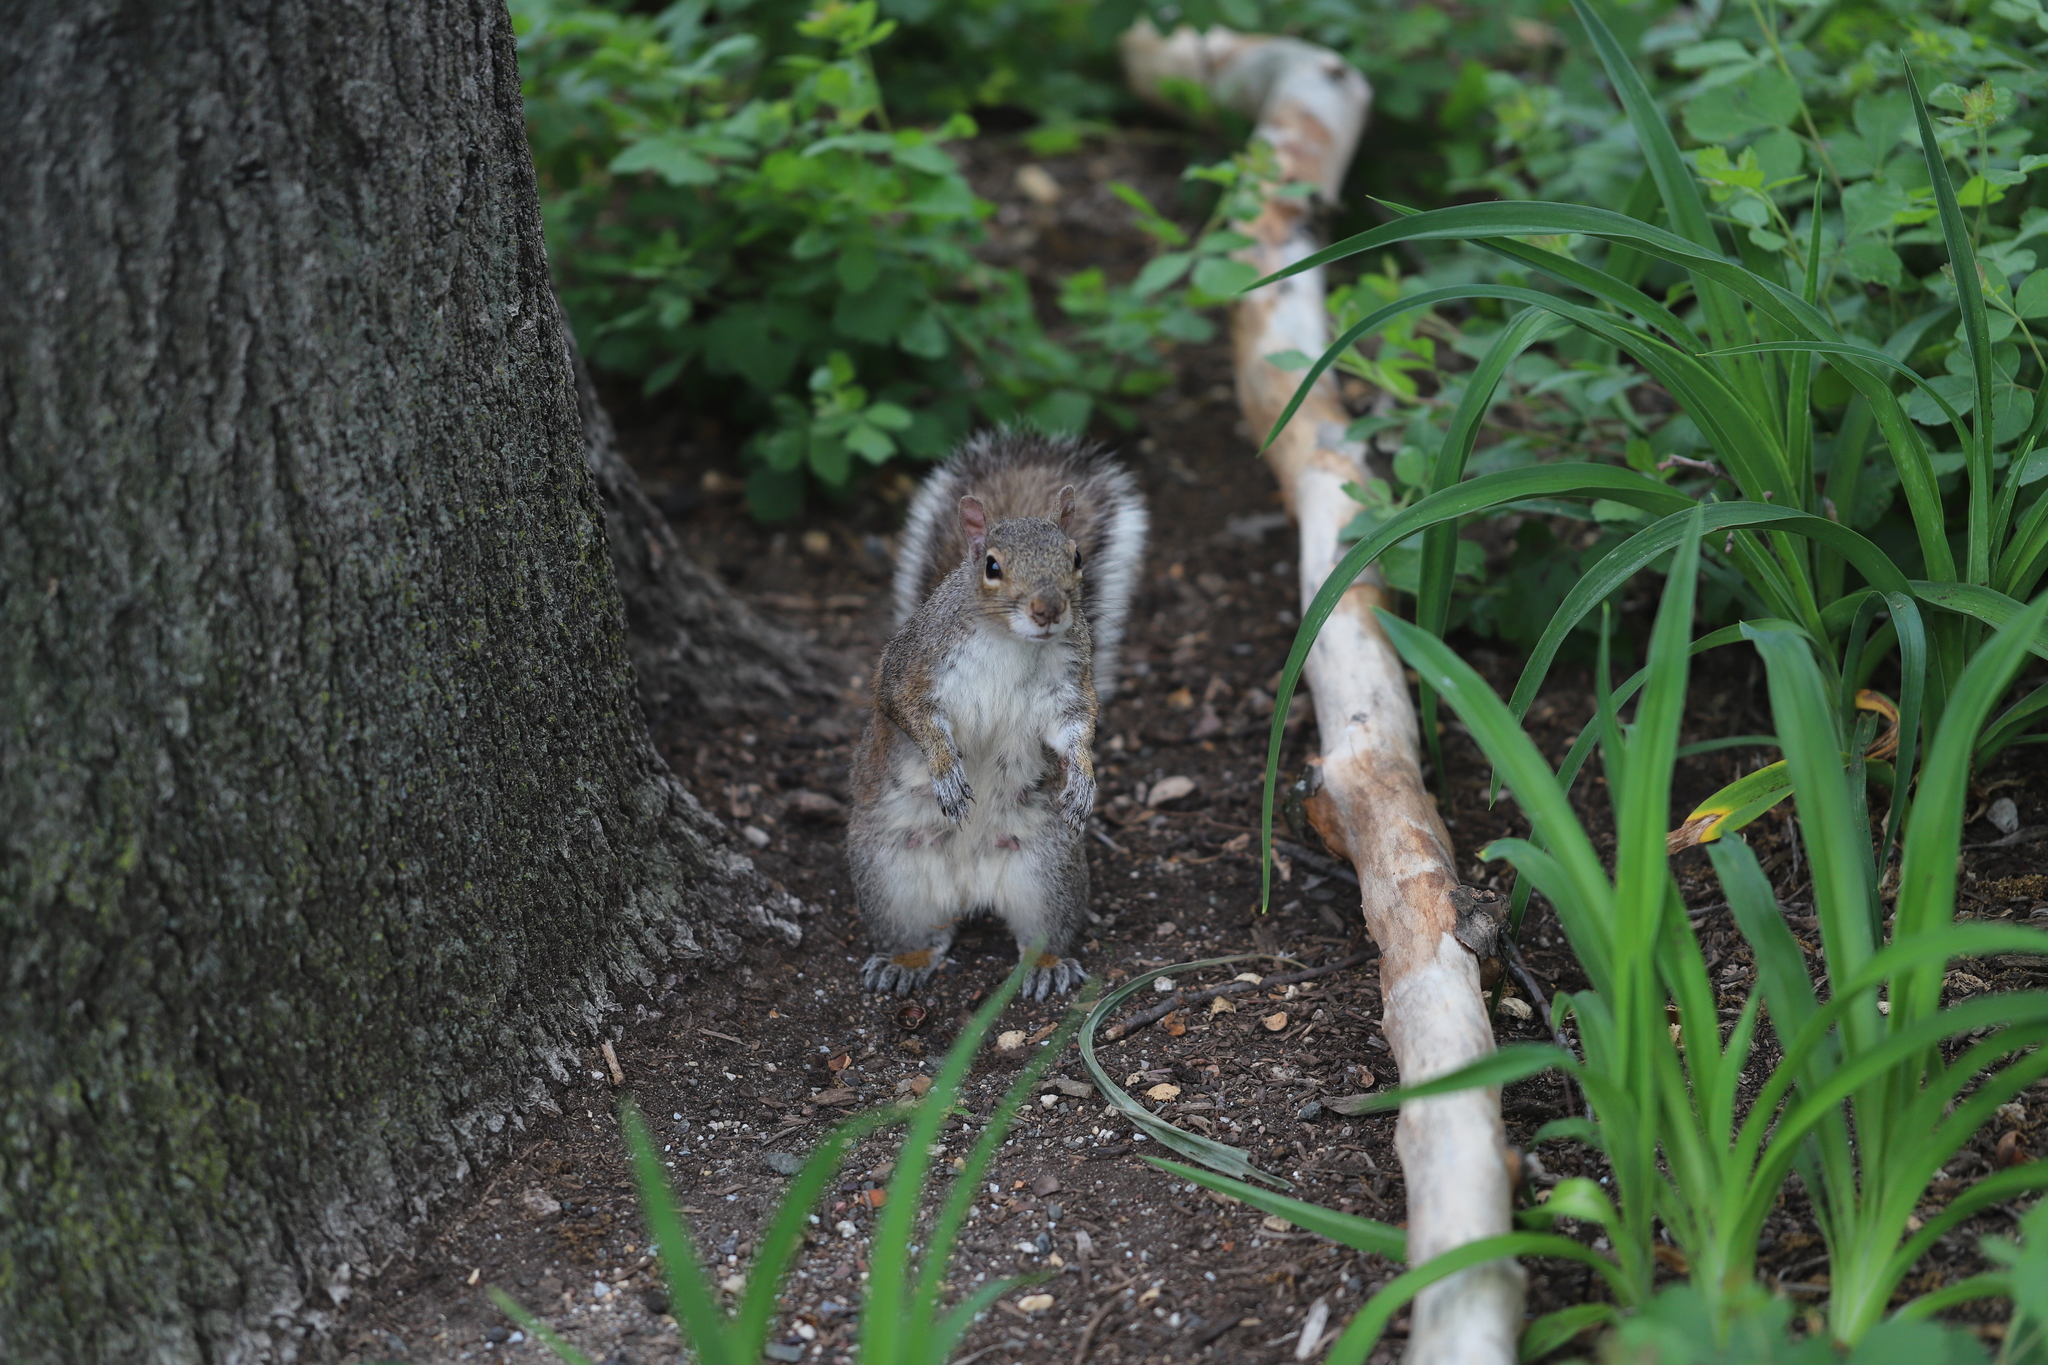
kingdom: Animalia
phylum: Chordata
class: Mammalia
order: Rodentia
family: Sciuridae
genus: Sciurus
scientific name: Sciurus carolinensis
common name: Eastern gray squirrel
